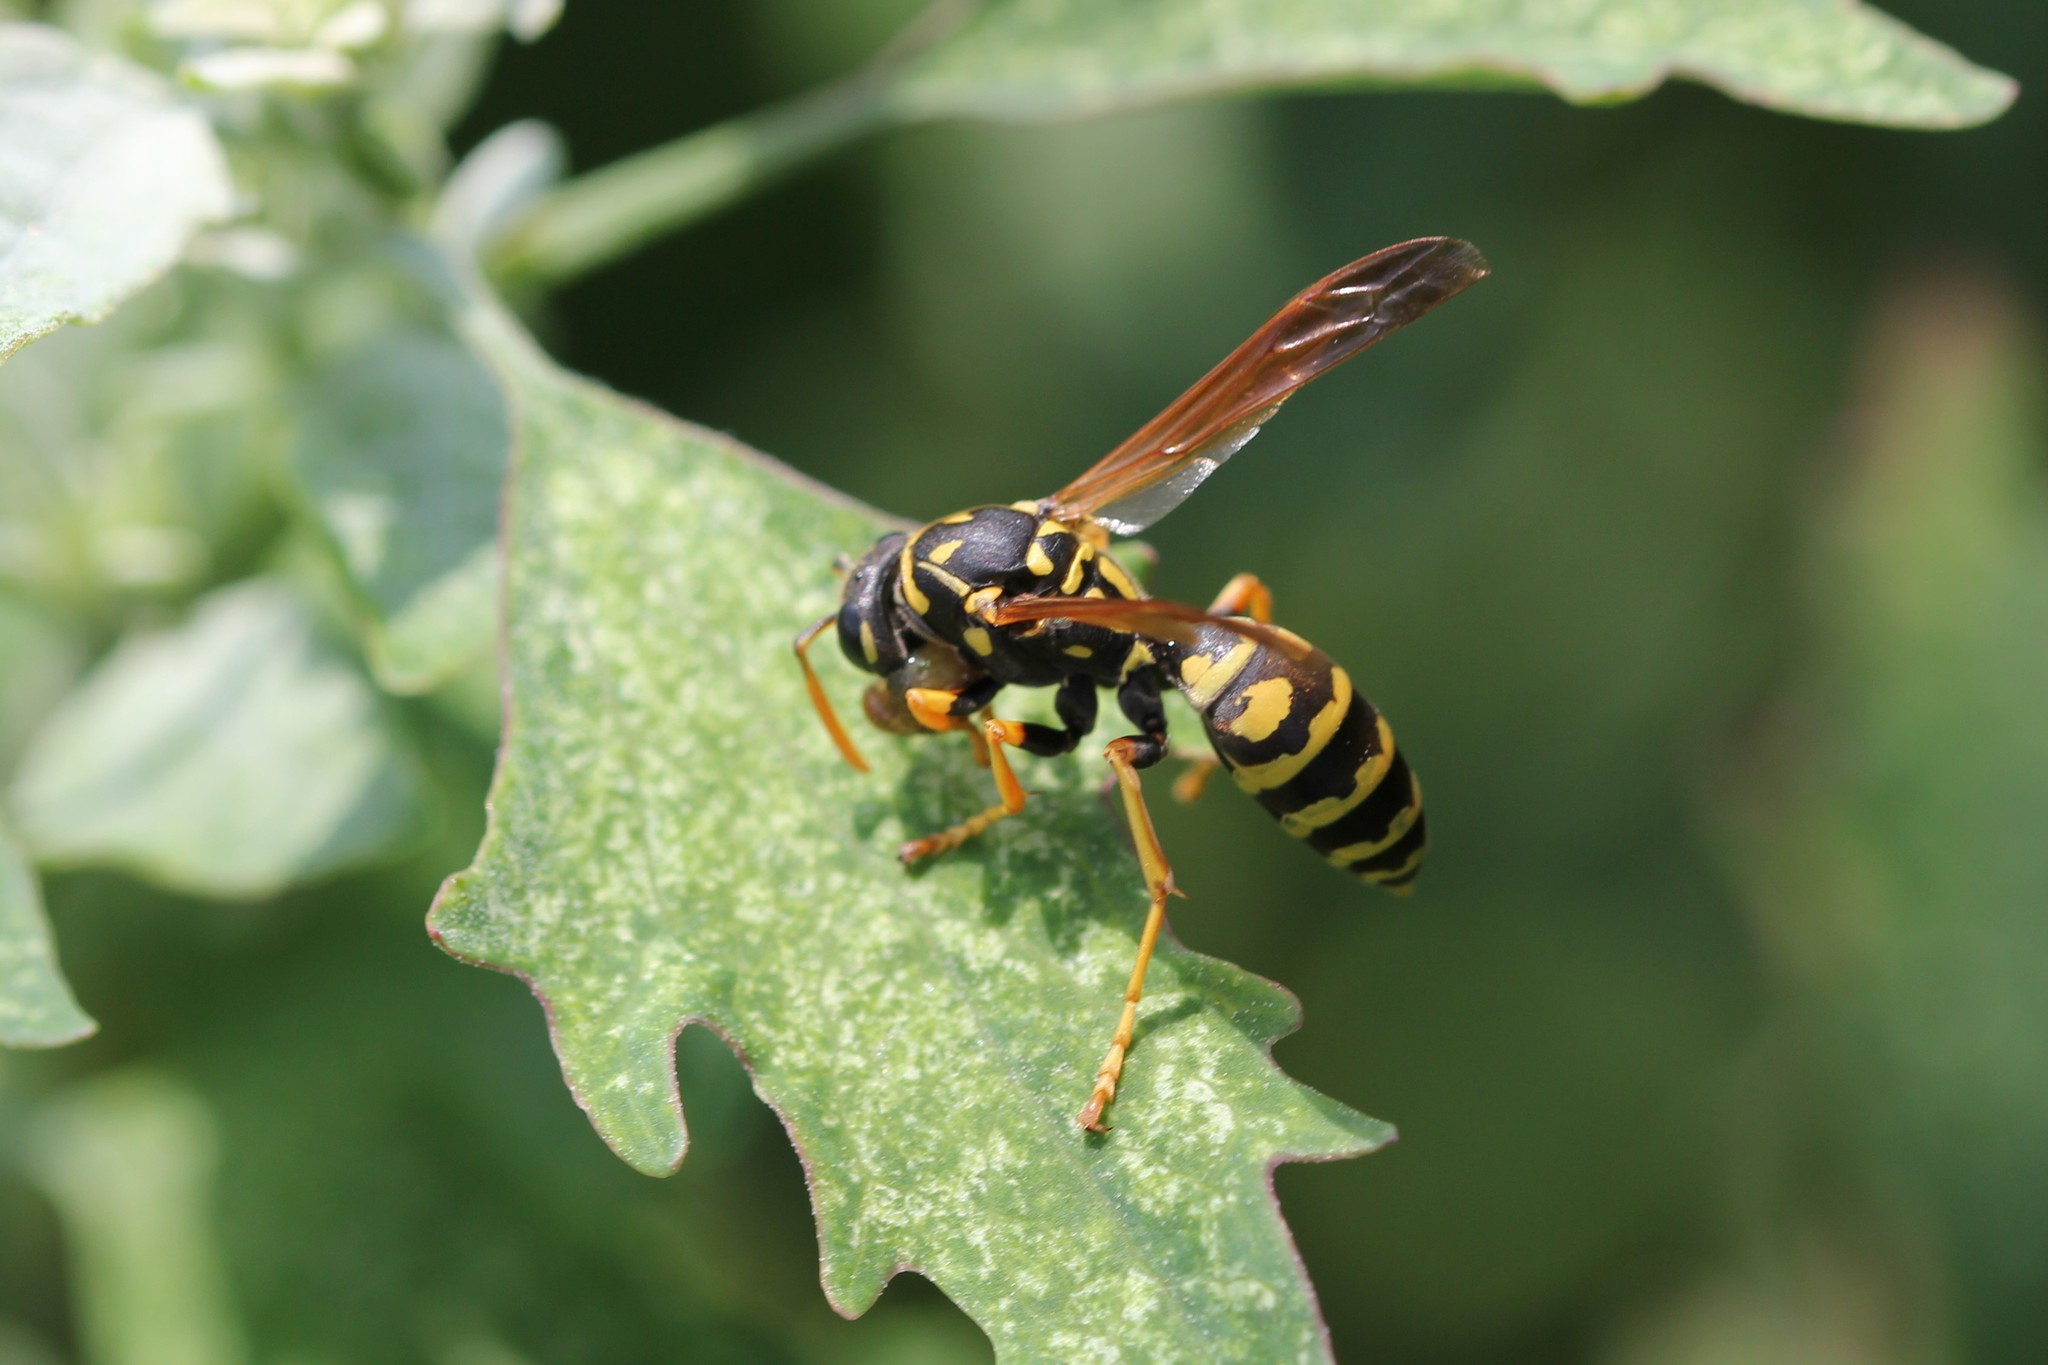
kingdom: Animalia
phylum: Arthropoda
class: Insecta
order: Hymenoptera
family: Eumenidae
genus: Polistes
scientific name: Polistes dominula
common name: Paper wasp
